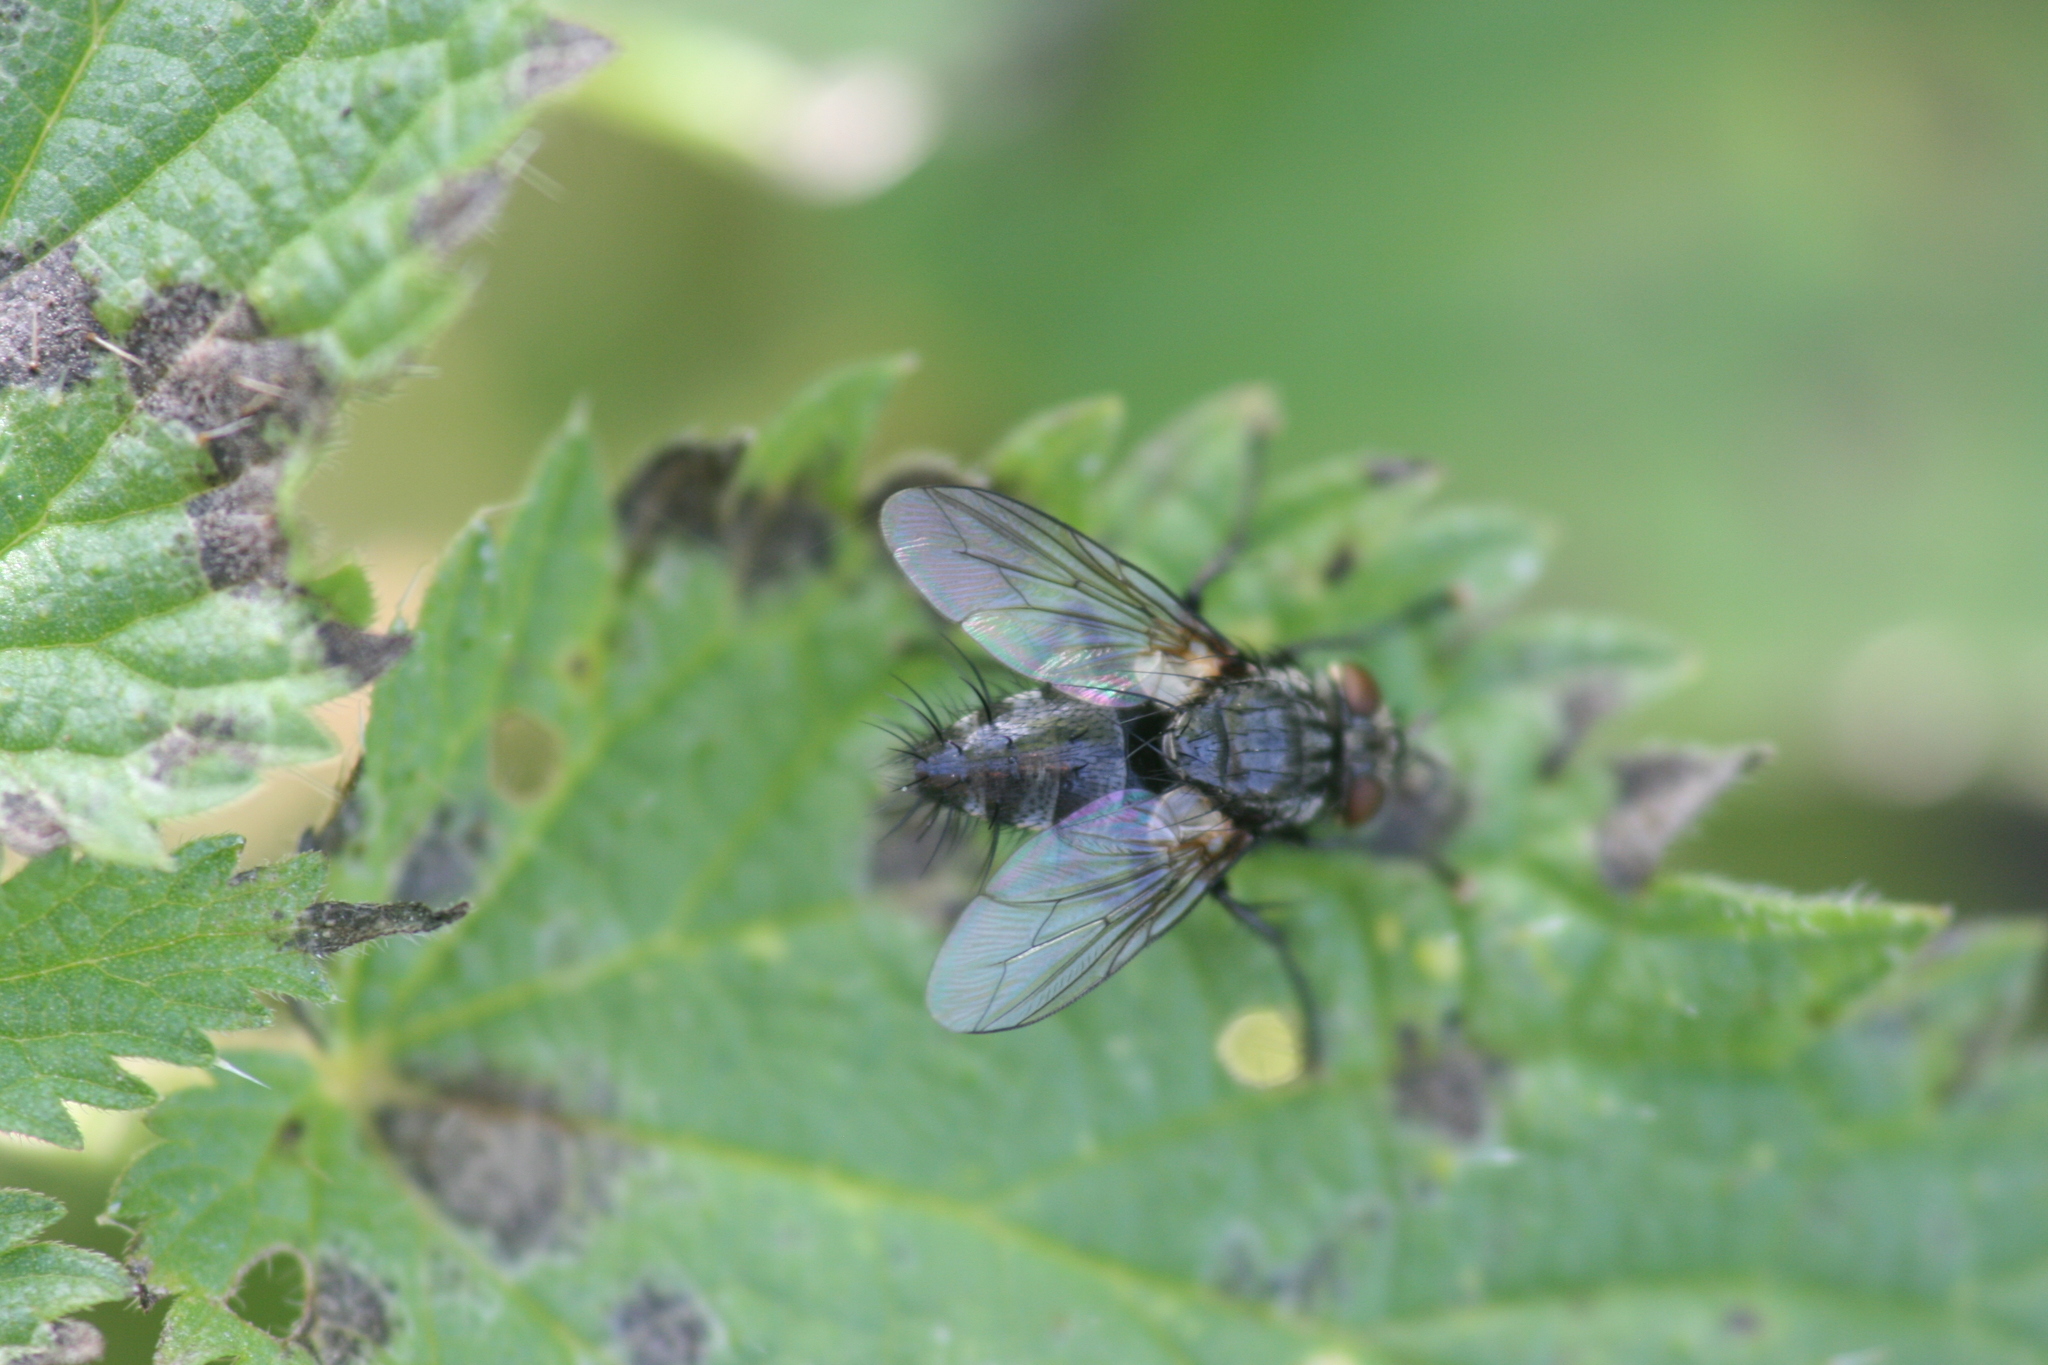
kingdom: Animalia
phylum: Arthropoda
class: Insecta
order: Diptera
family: Tachinidae
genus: Voria
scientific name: Voria ruralis
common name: Parasitic fly
